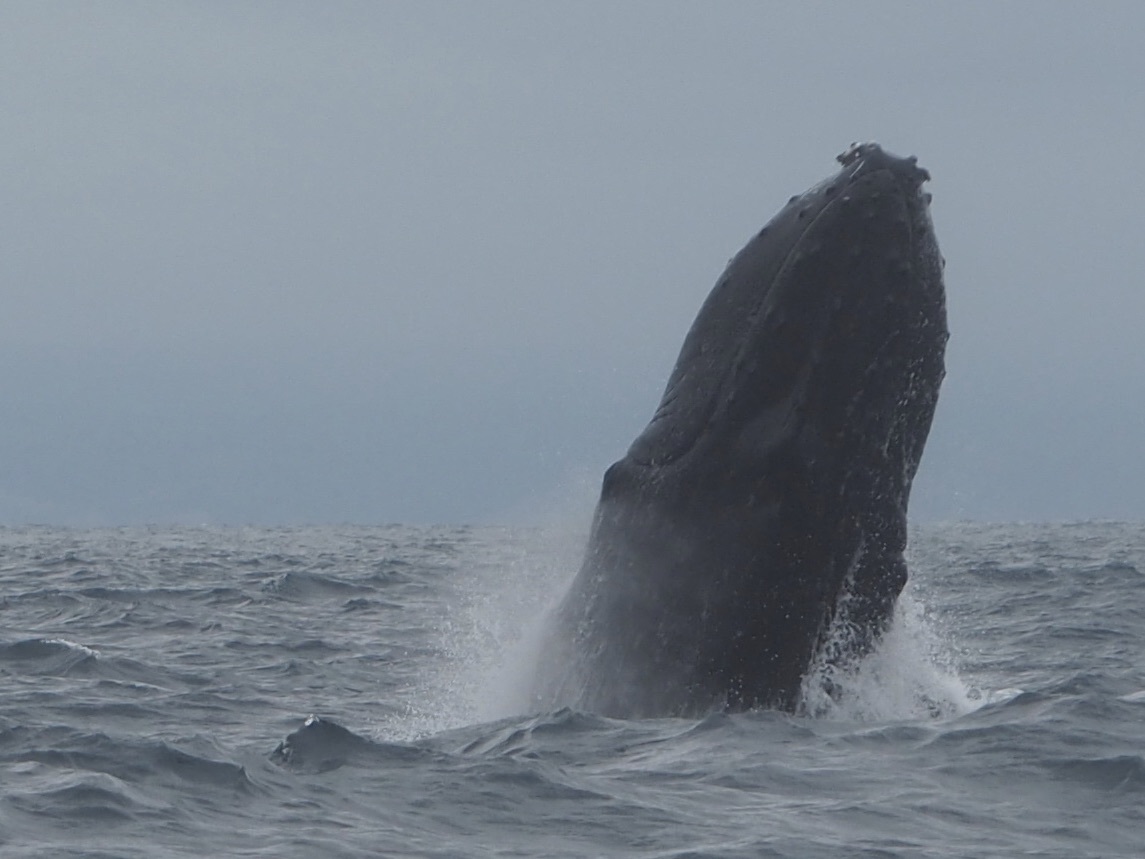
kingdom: Animalia
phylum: Chordata
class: Mammalia
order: Cetacea
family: Balaenopteridae
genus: Megaptera
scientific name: Megaptera novaeangliae
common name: Humpback whale
